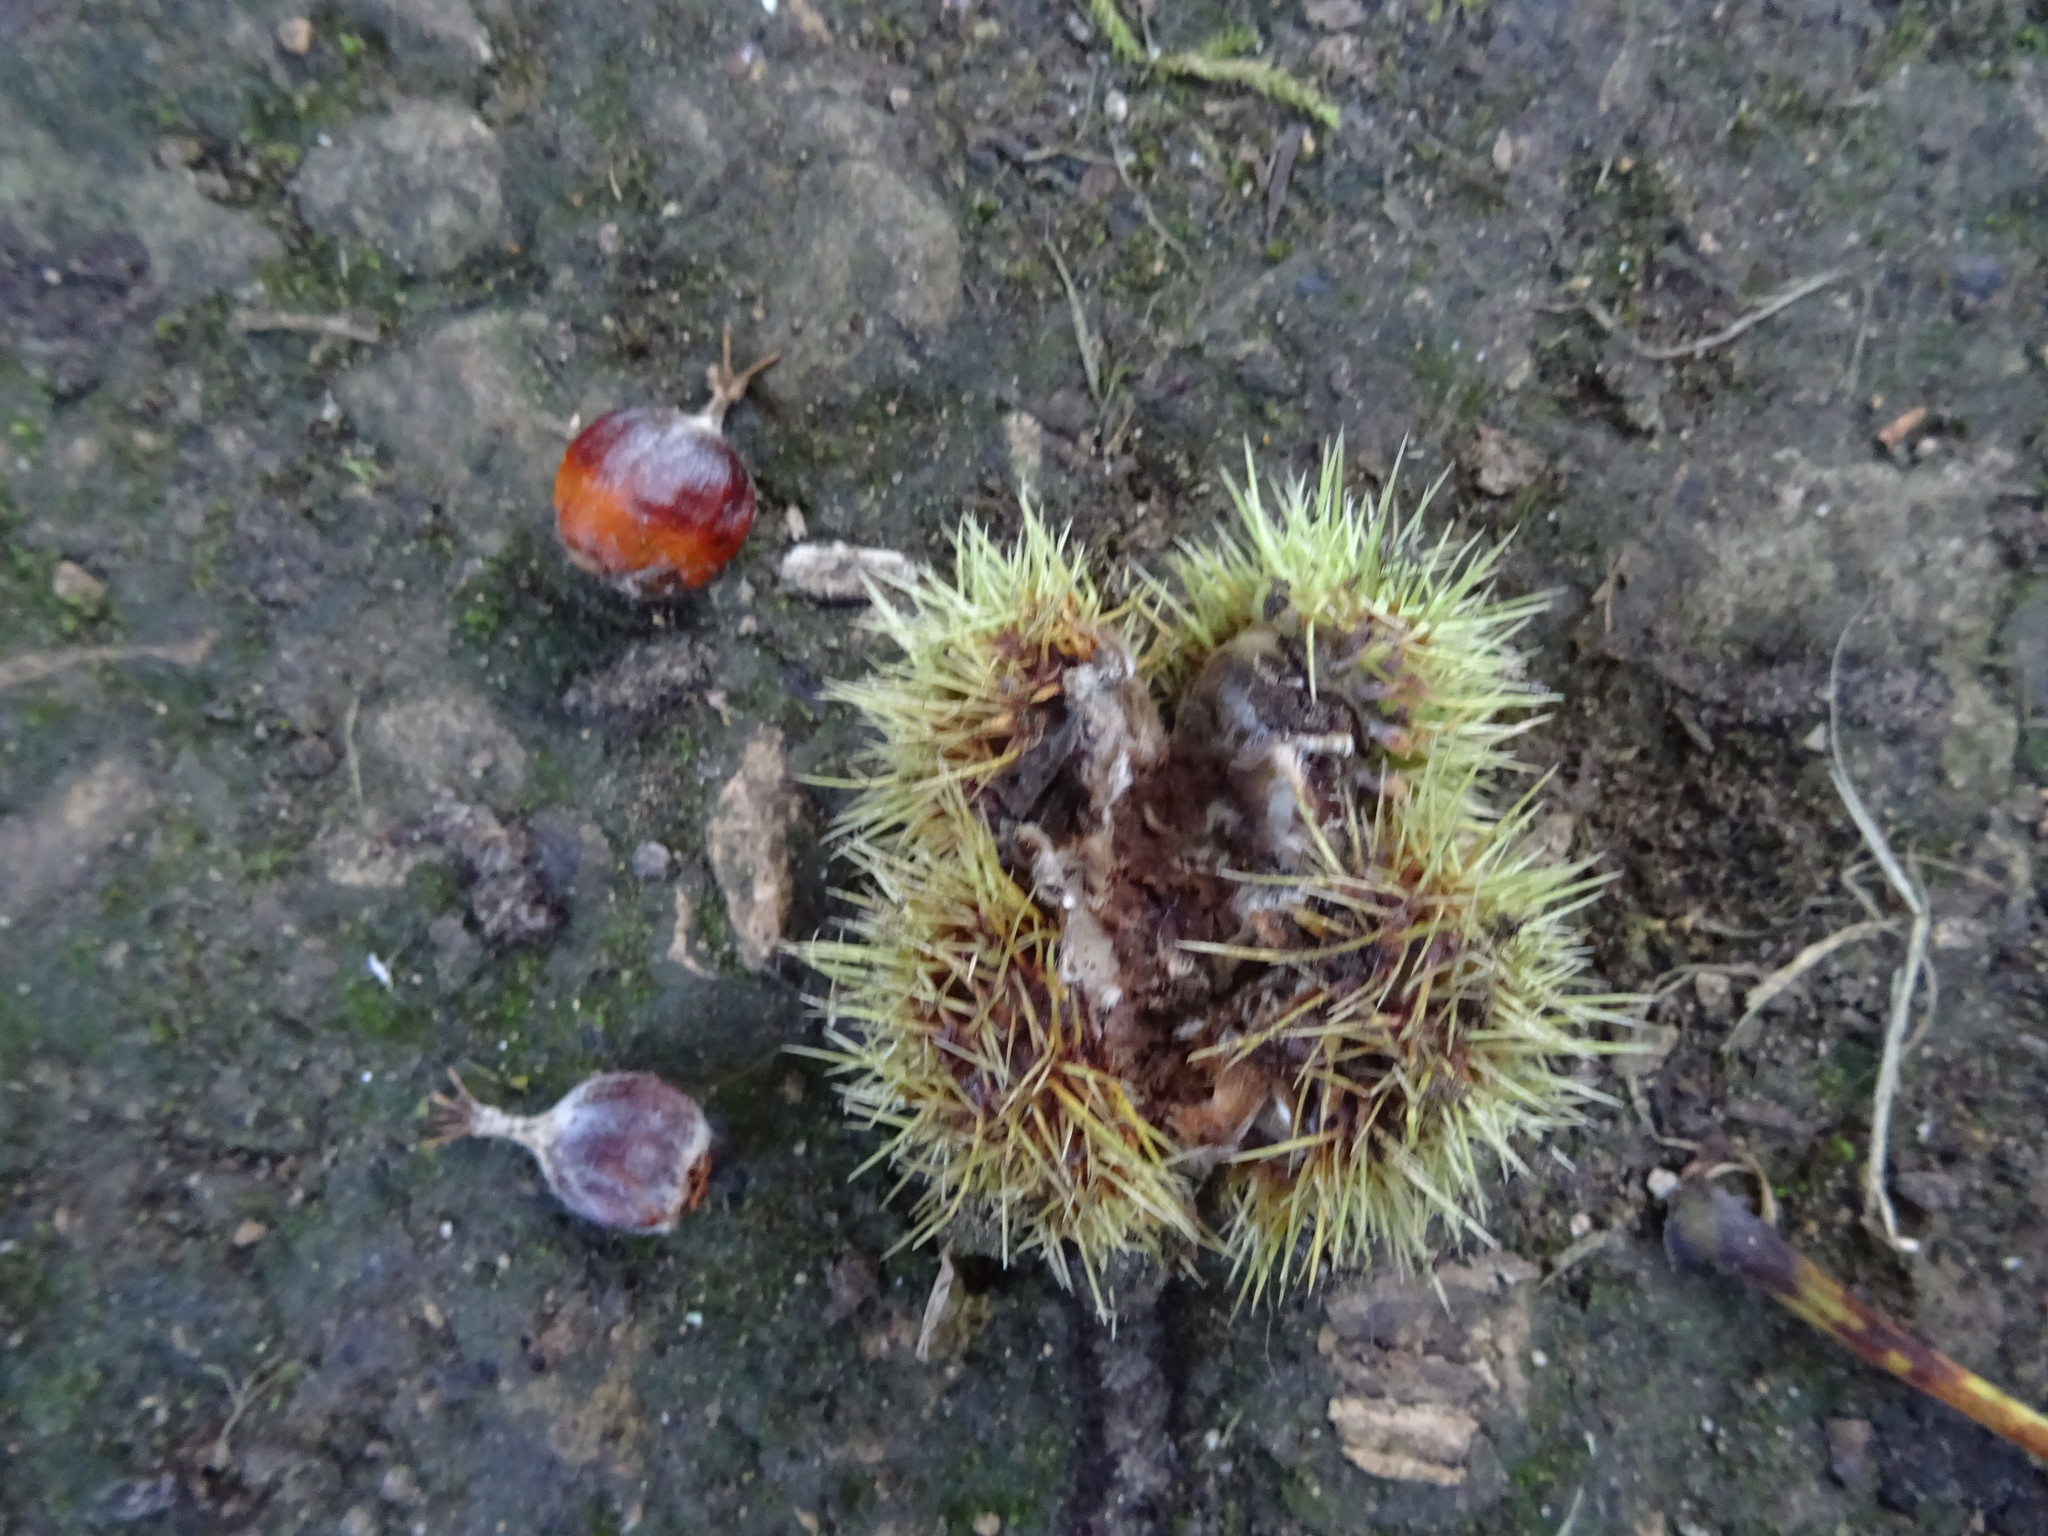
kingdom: Plantae
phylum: Tracheophyta
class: Magnoliopsida
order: Fagales
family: Fagaceae
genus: Castanea
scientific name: Castanea sativa
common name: Sweet chestnut
